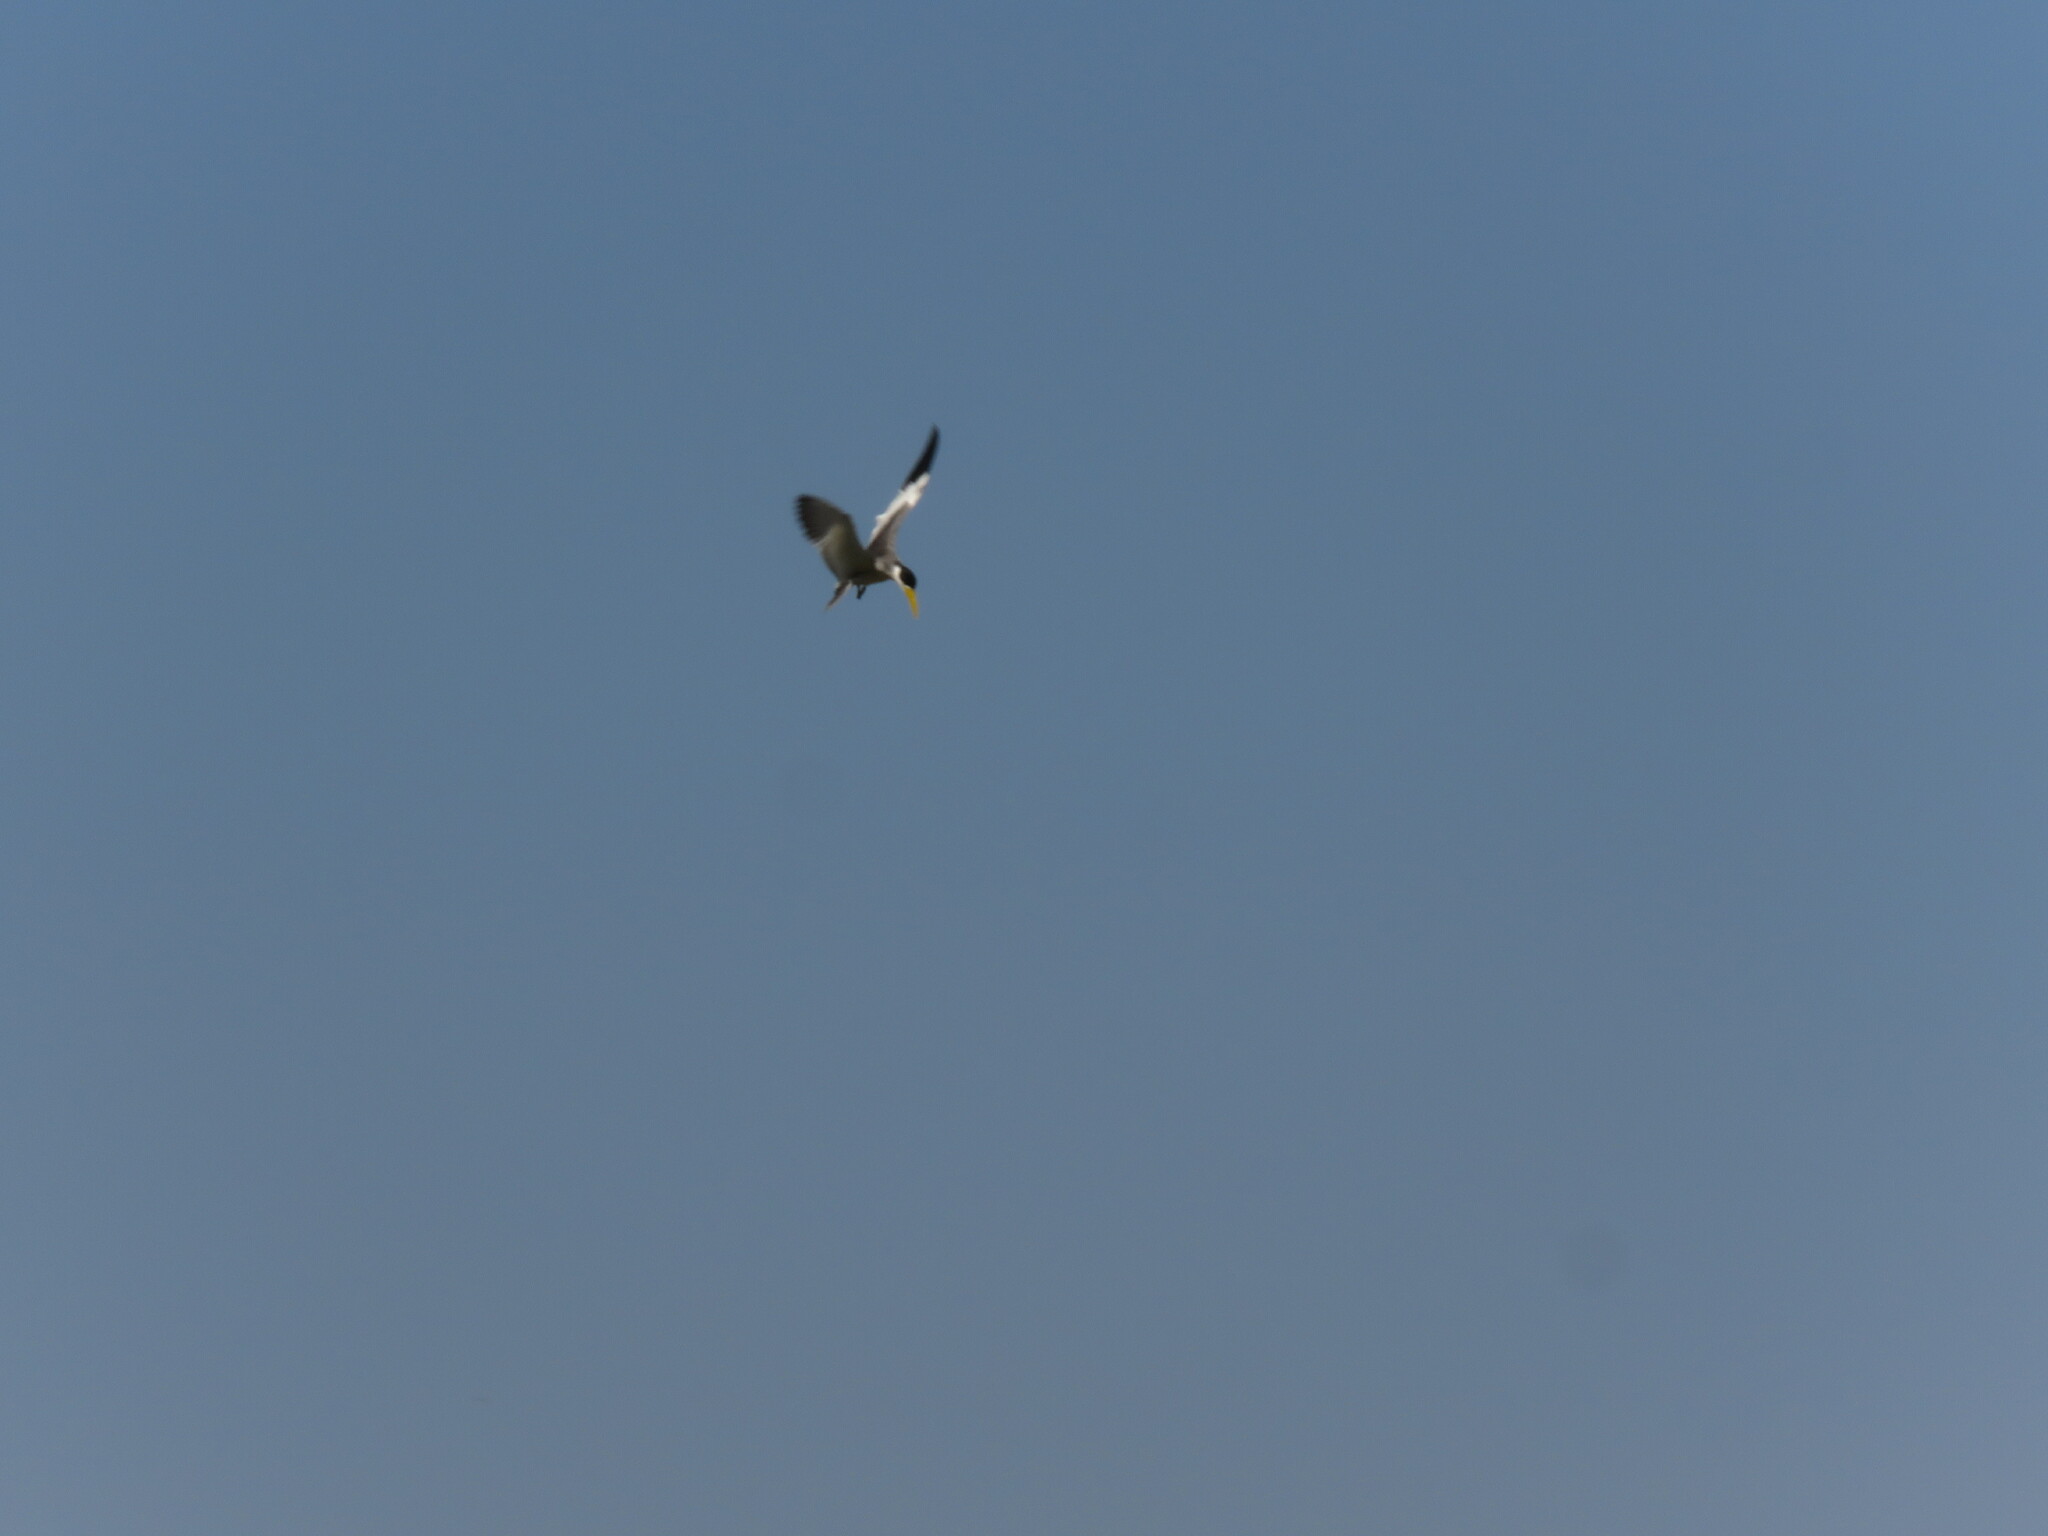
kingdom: Animalia
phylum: Chordata
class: Aves
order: Charadriiformes
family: Laridae
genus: Phaetusa
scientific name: Phaetusa simplex
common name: Large-billed tern
